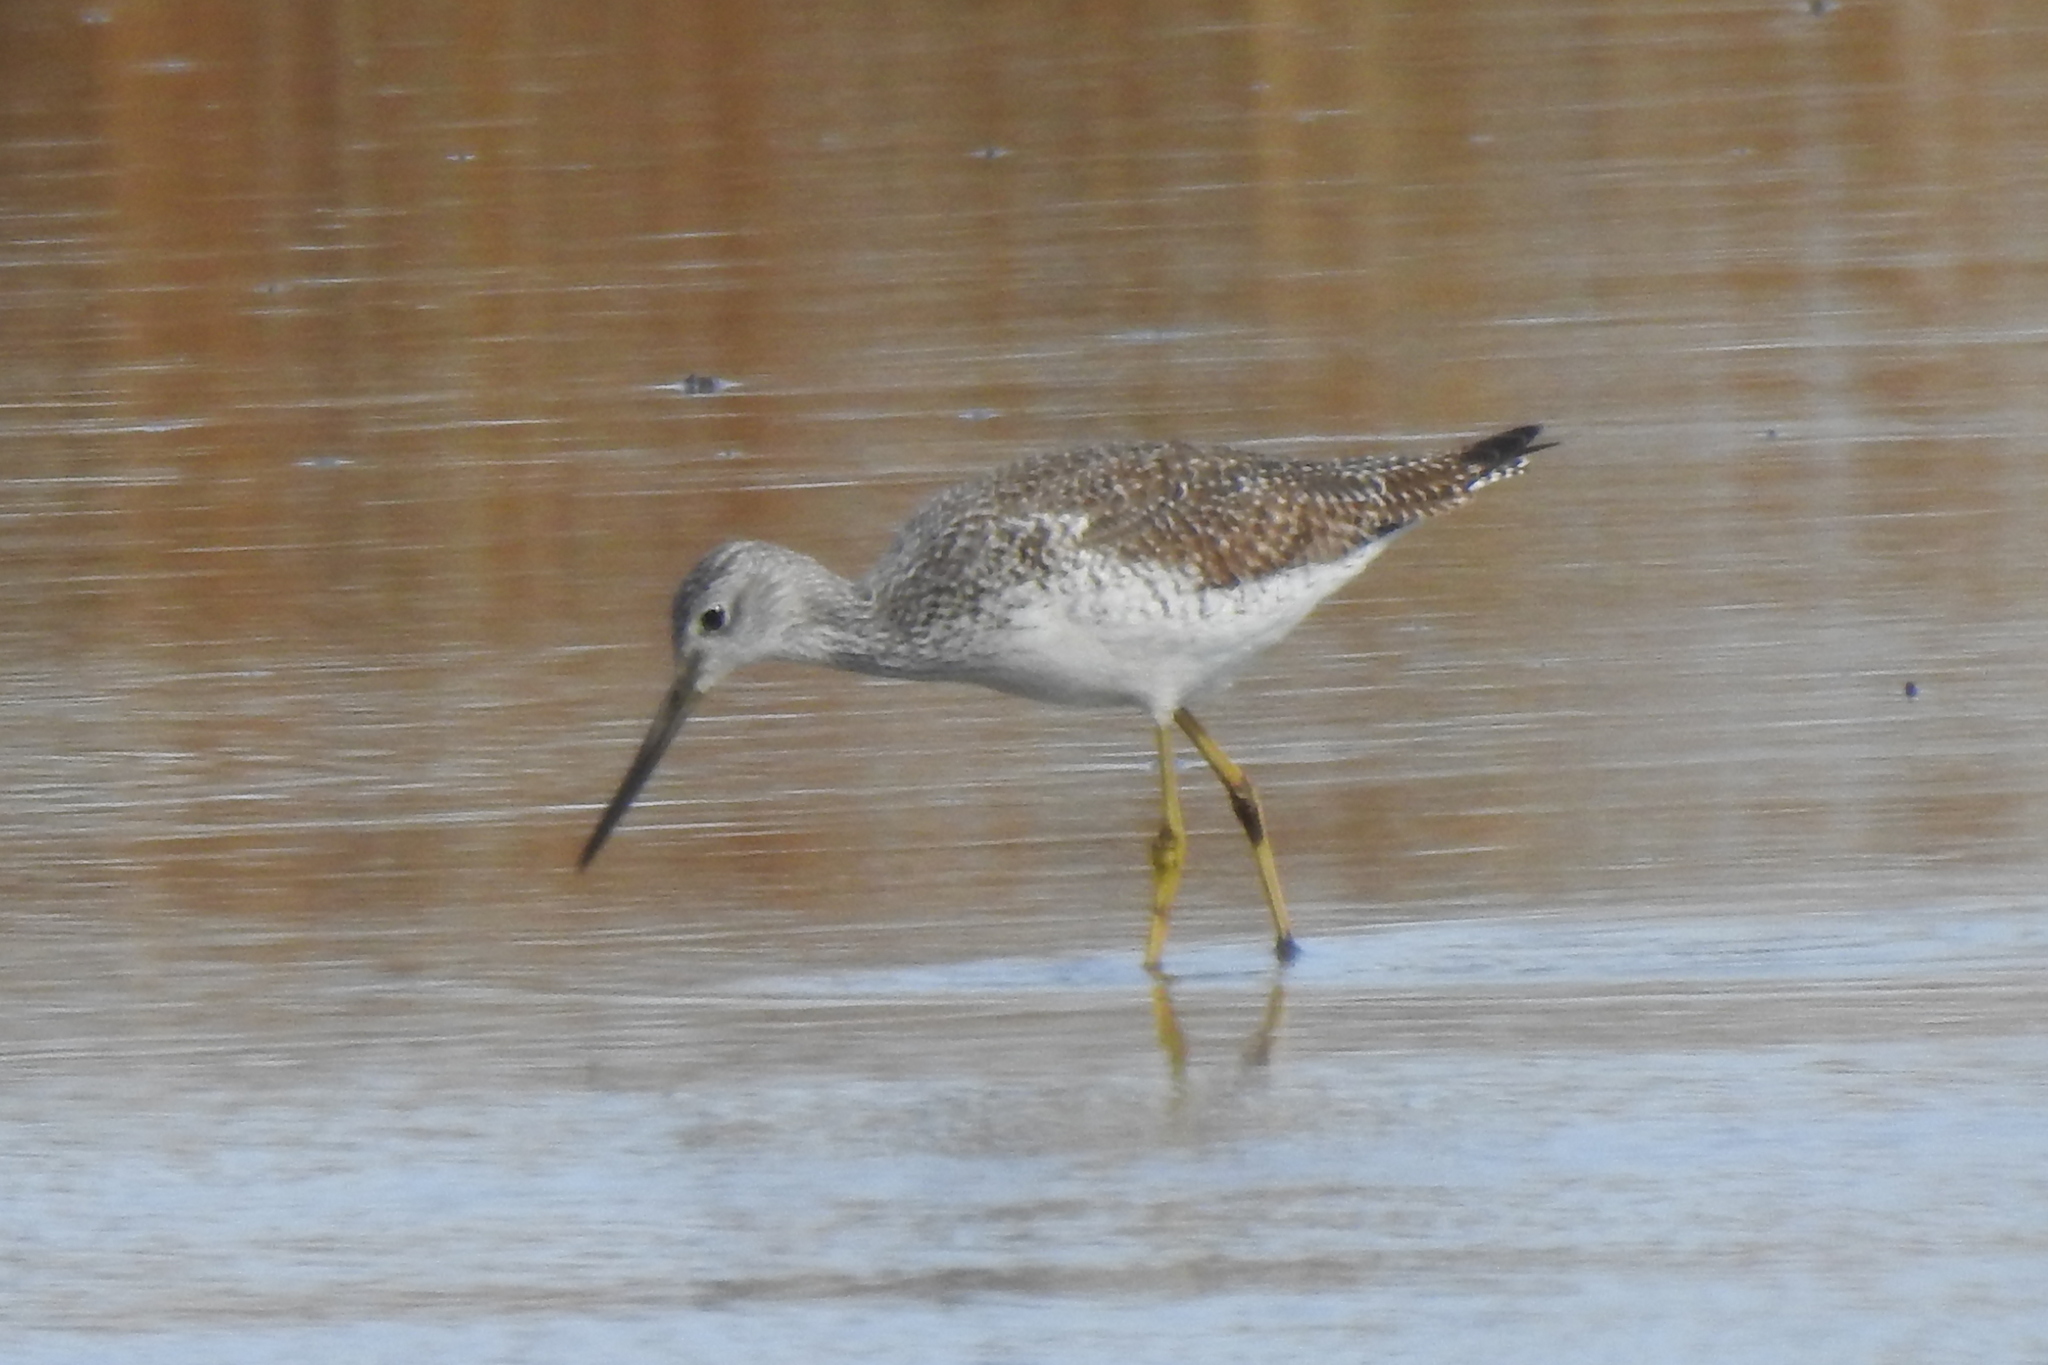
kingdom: Animalia
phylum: Chordata
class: Aves
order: Charadriiformes
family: Scolopacidae
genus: Tringa
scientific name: Tringa melanoleuca
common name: Greater yellowlegs
